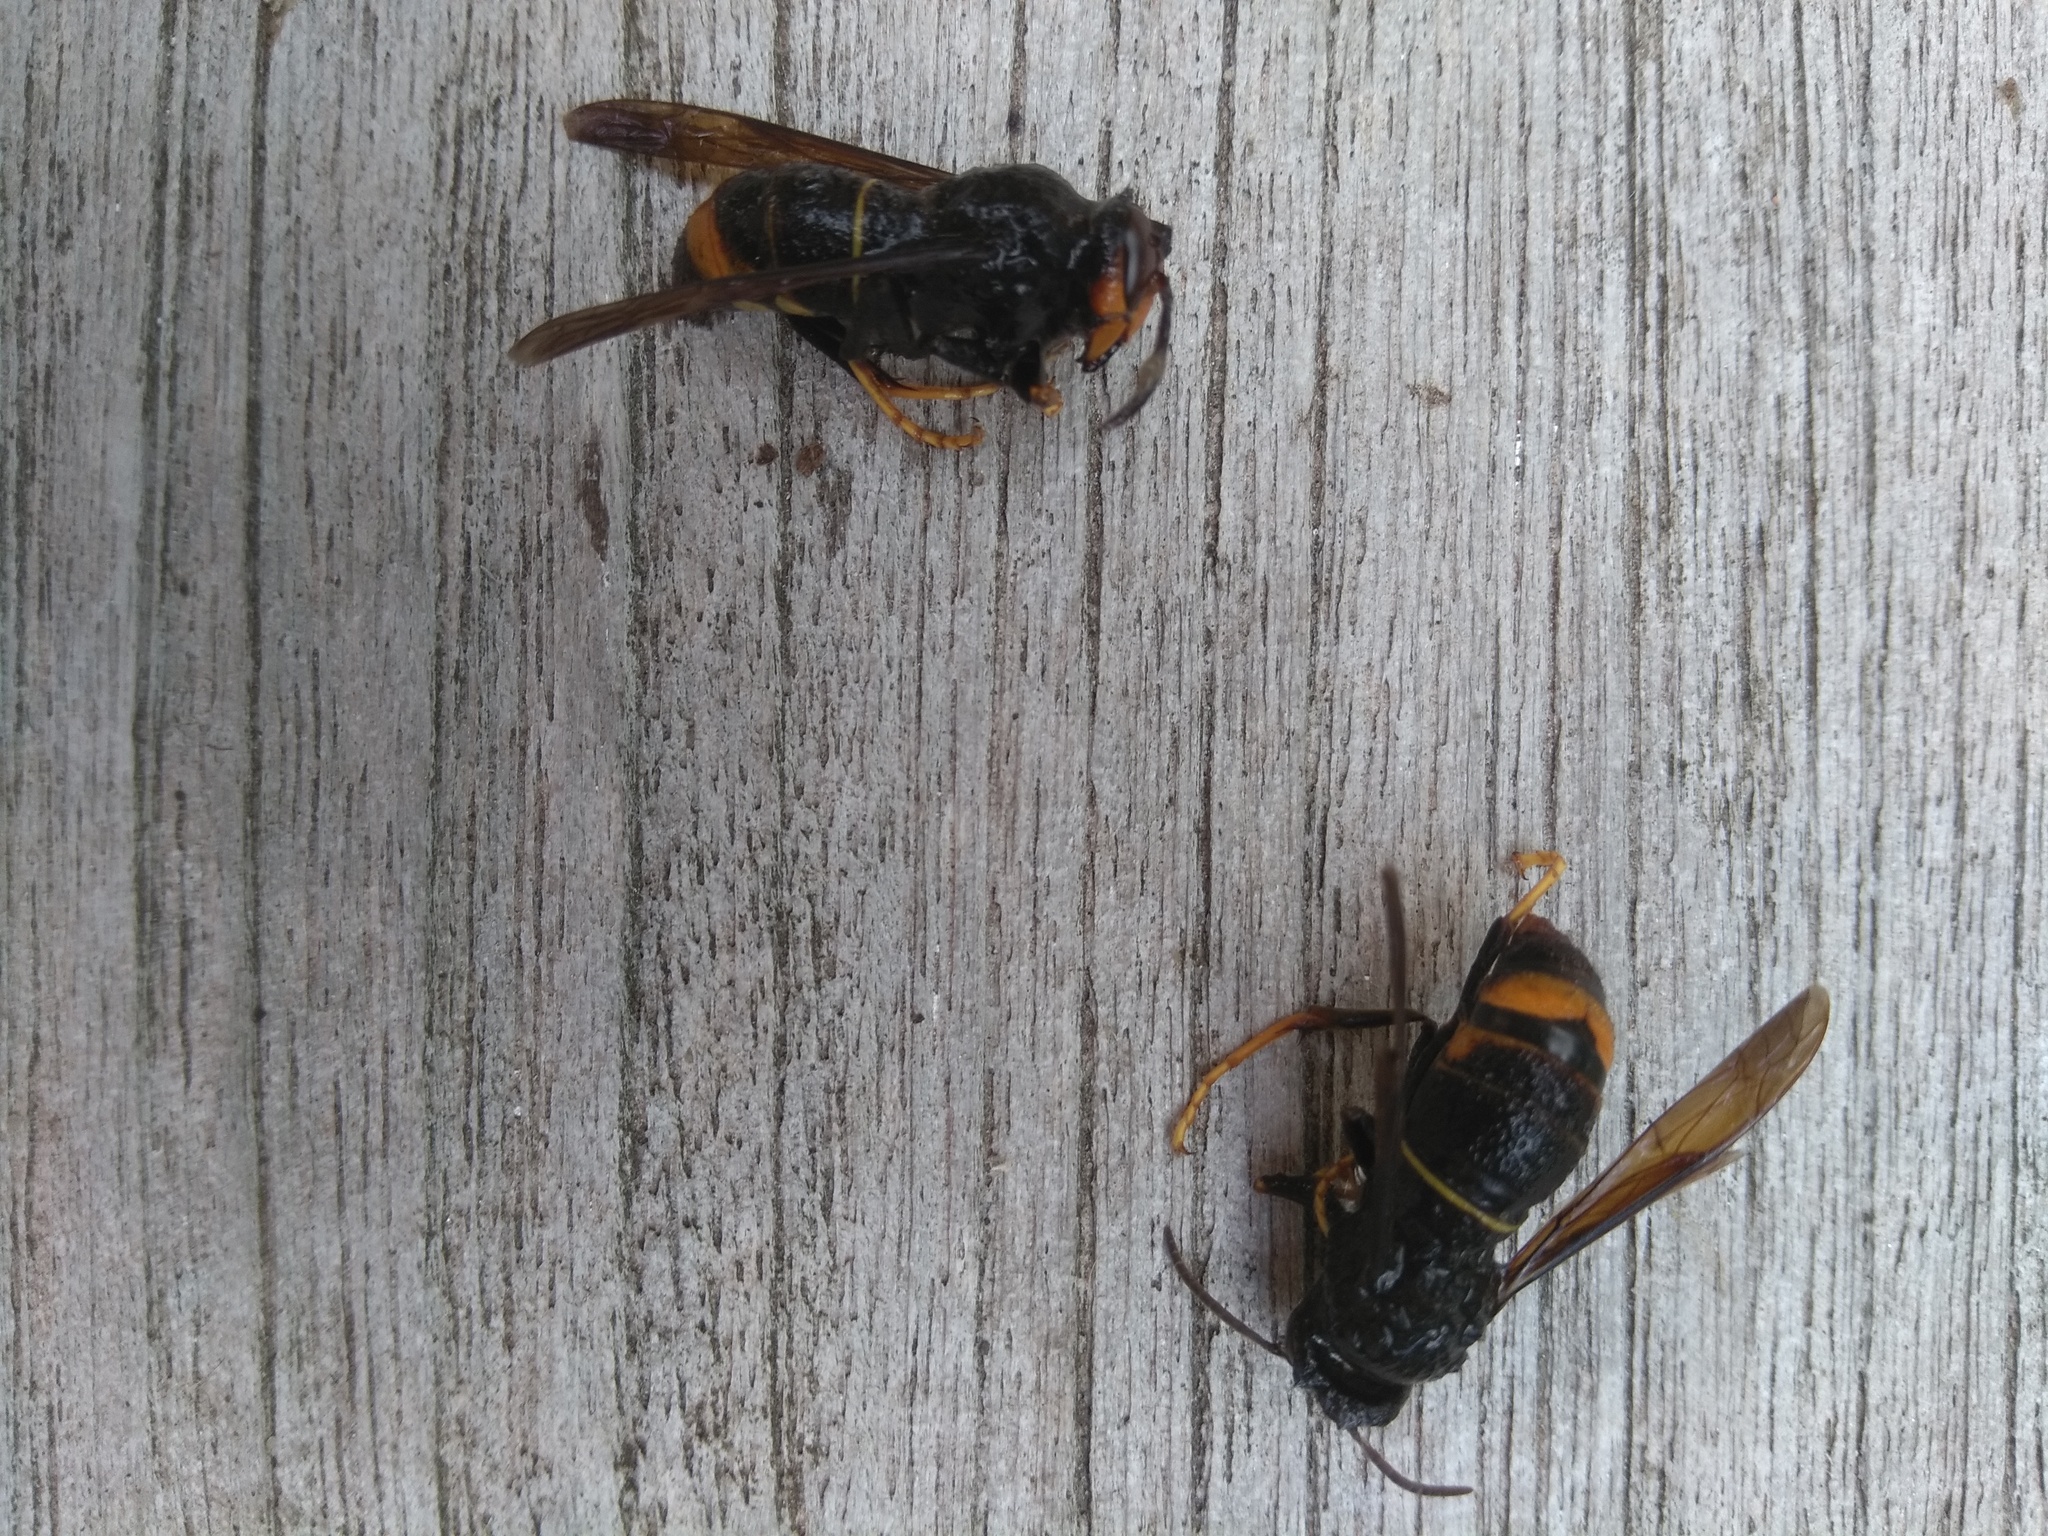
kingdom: Animalia
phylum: Arthropoda
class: Insecta
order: Hymenoptera
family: Vespidae
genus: Vespa
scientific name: Vespa velutina
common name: Asian hornet
